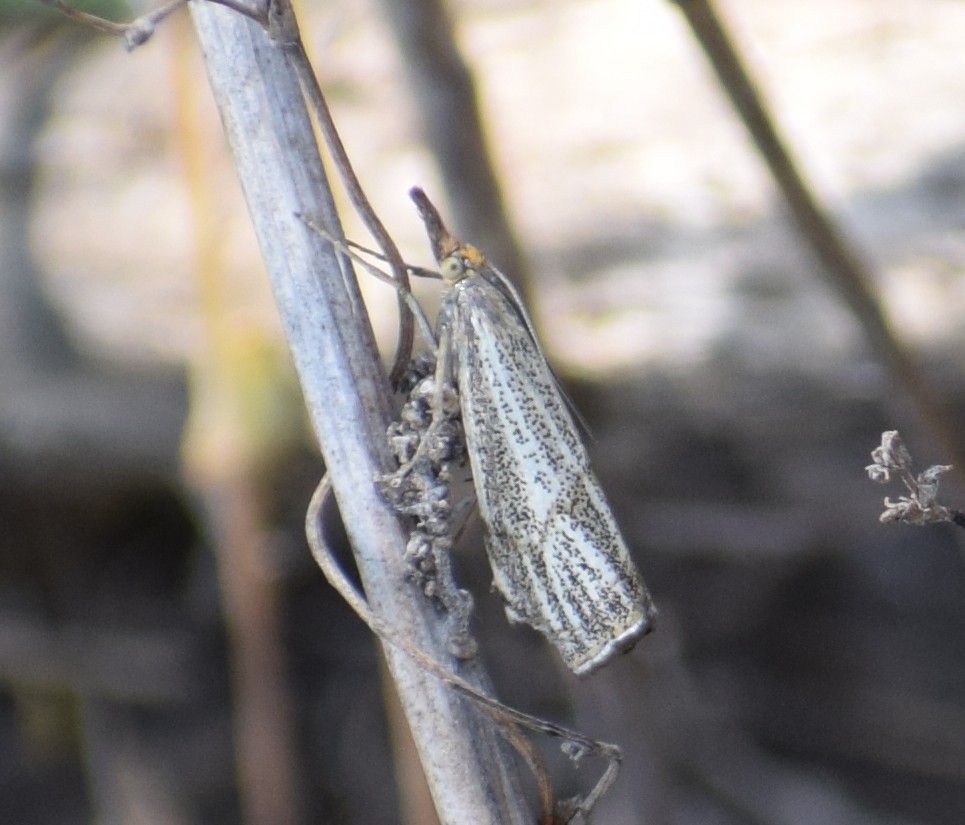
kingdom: Animalia
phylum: Arthropoda
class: Insecta
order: Lepidoptera
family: Crambidae
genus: Thisanotia
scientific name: Thisanotia chrysonuchella
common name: Powdered grass-veneer
